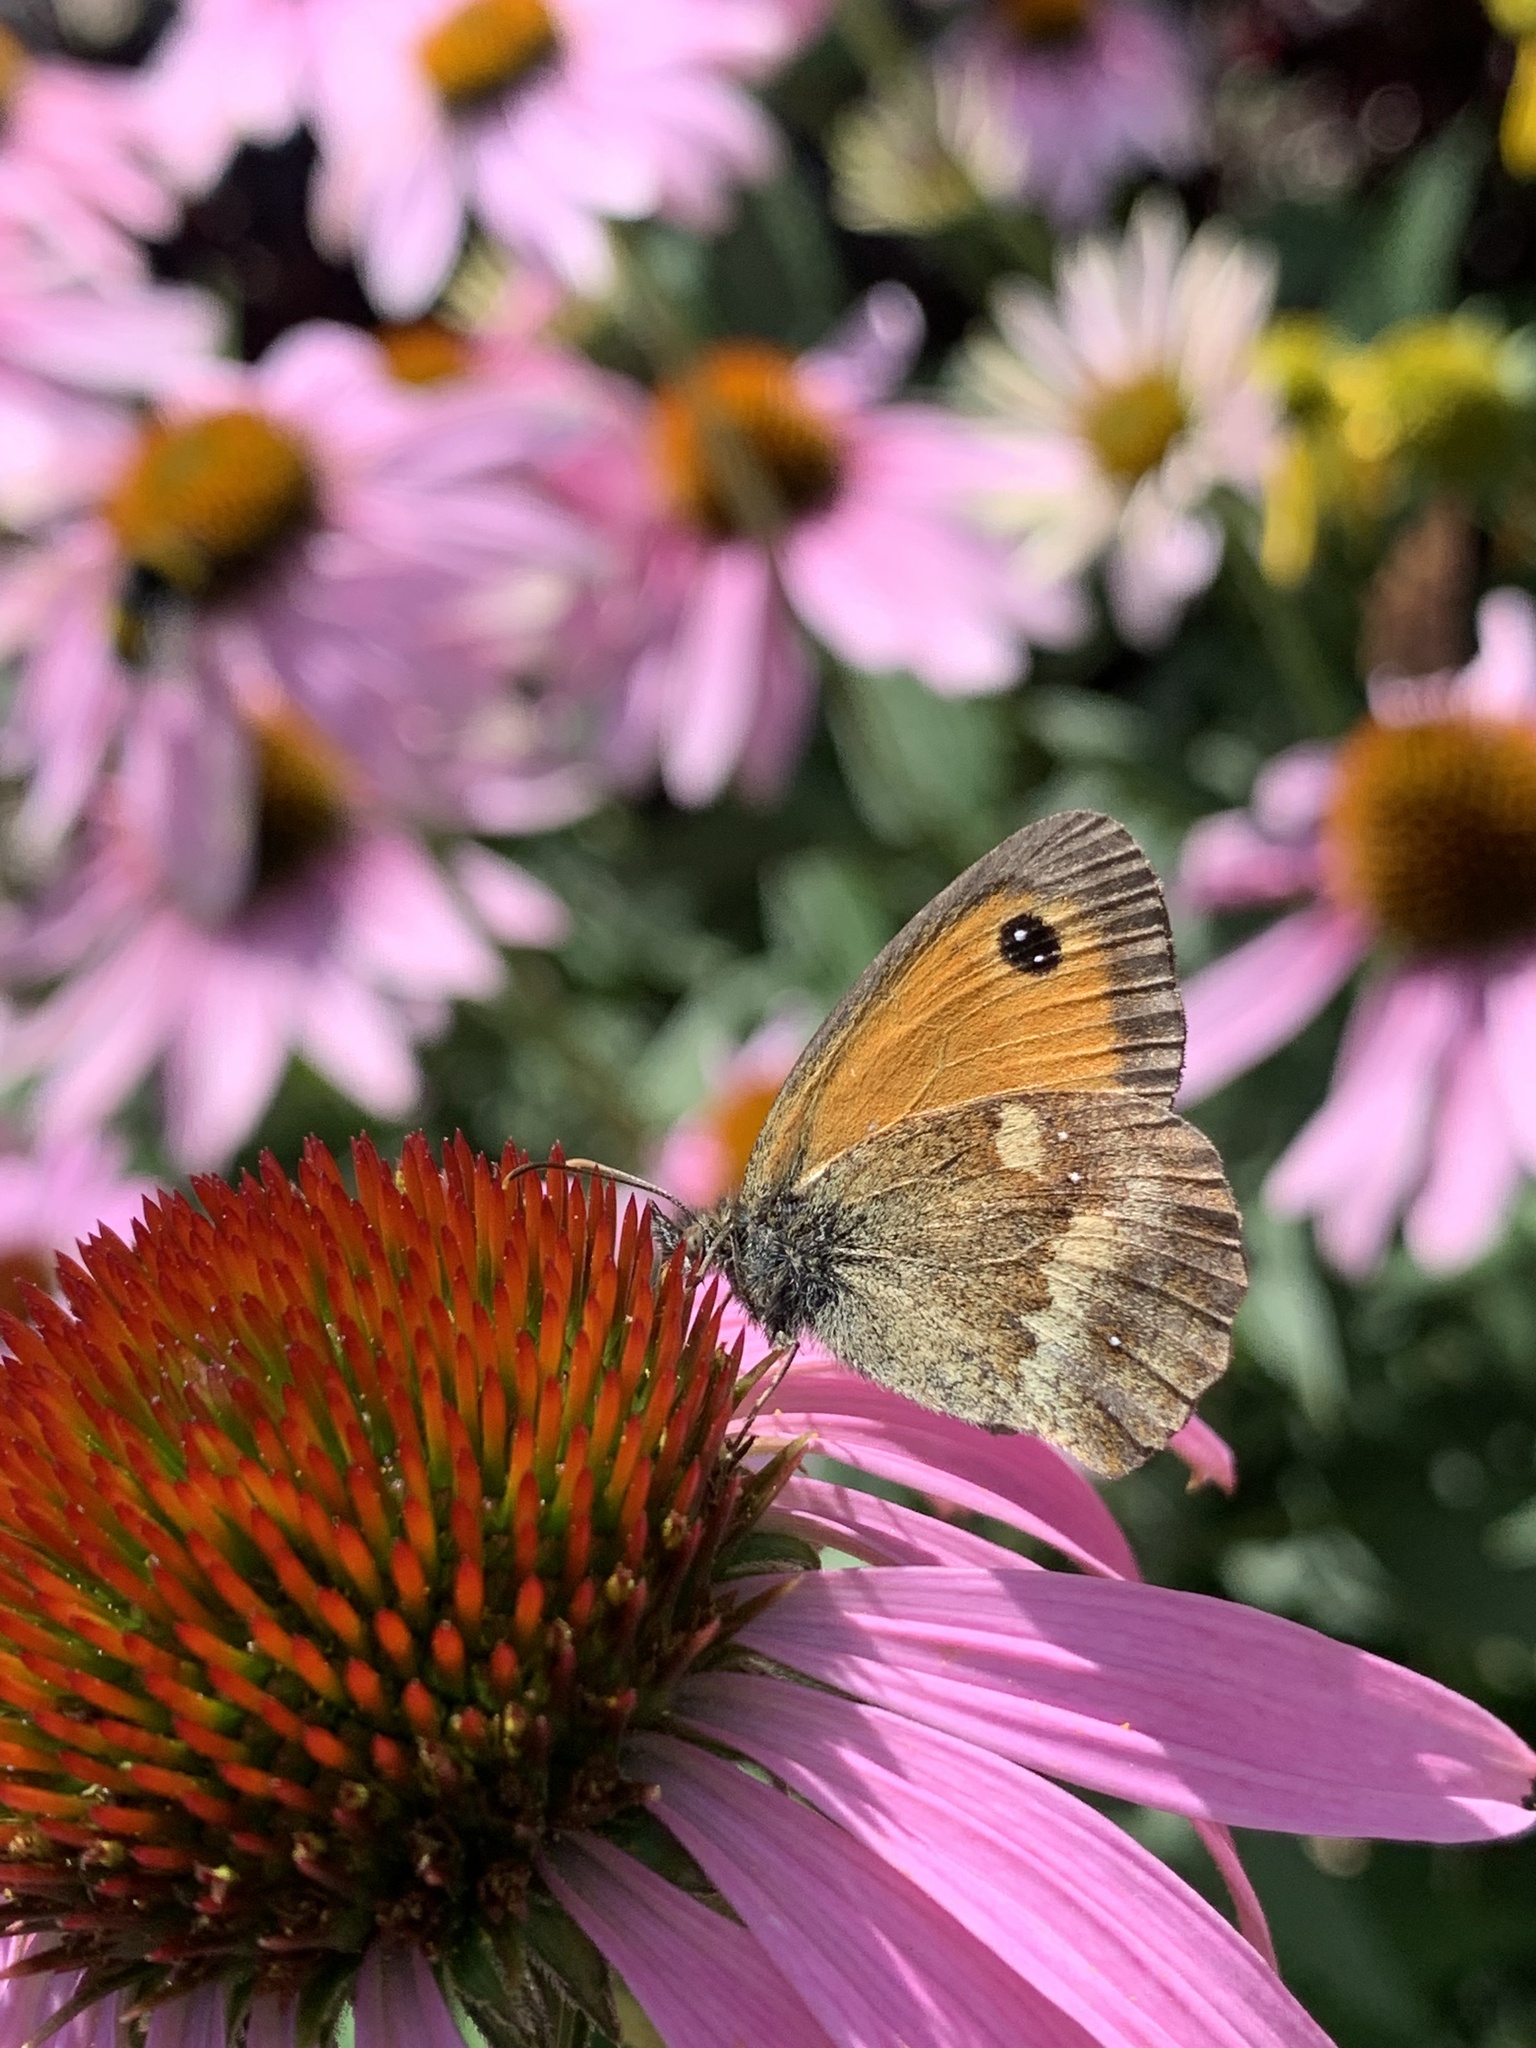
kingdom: Animalia
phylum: Arthropoda
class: Insecta
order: Lepidoptera
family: Nymphalidae
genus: Pyronia
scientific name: Pyronia tithonus
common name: Gatekeeper
